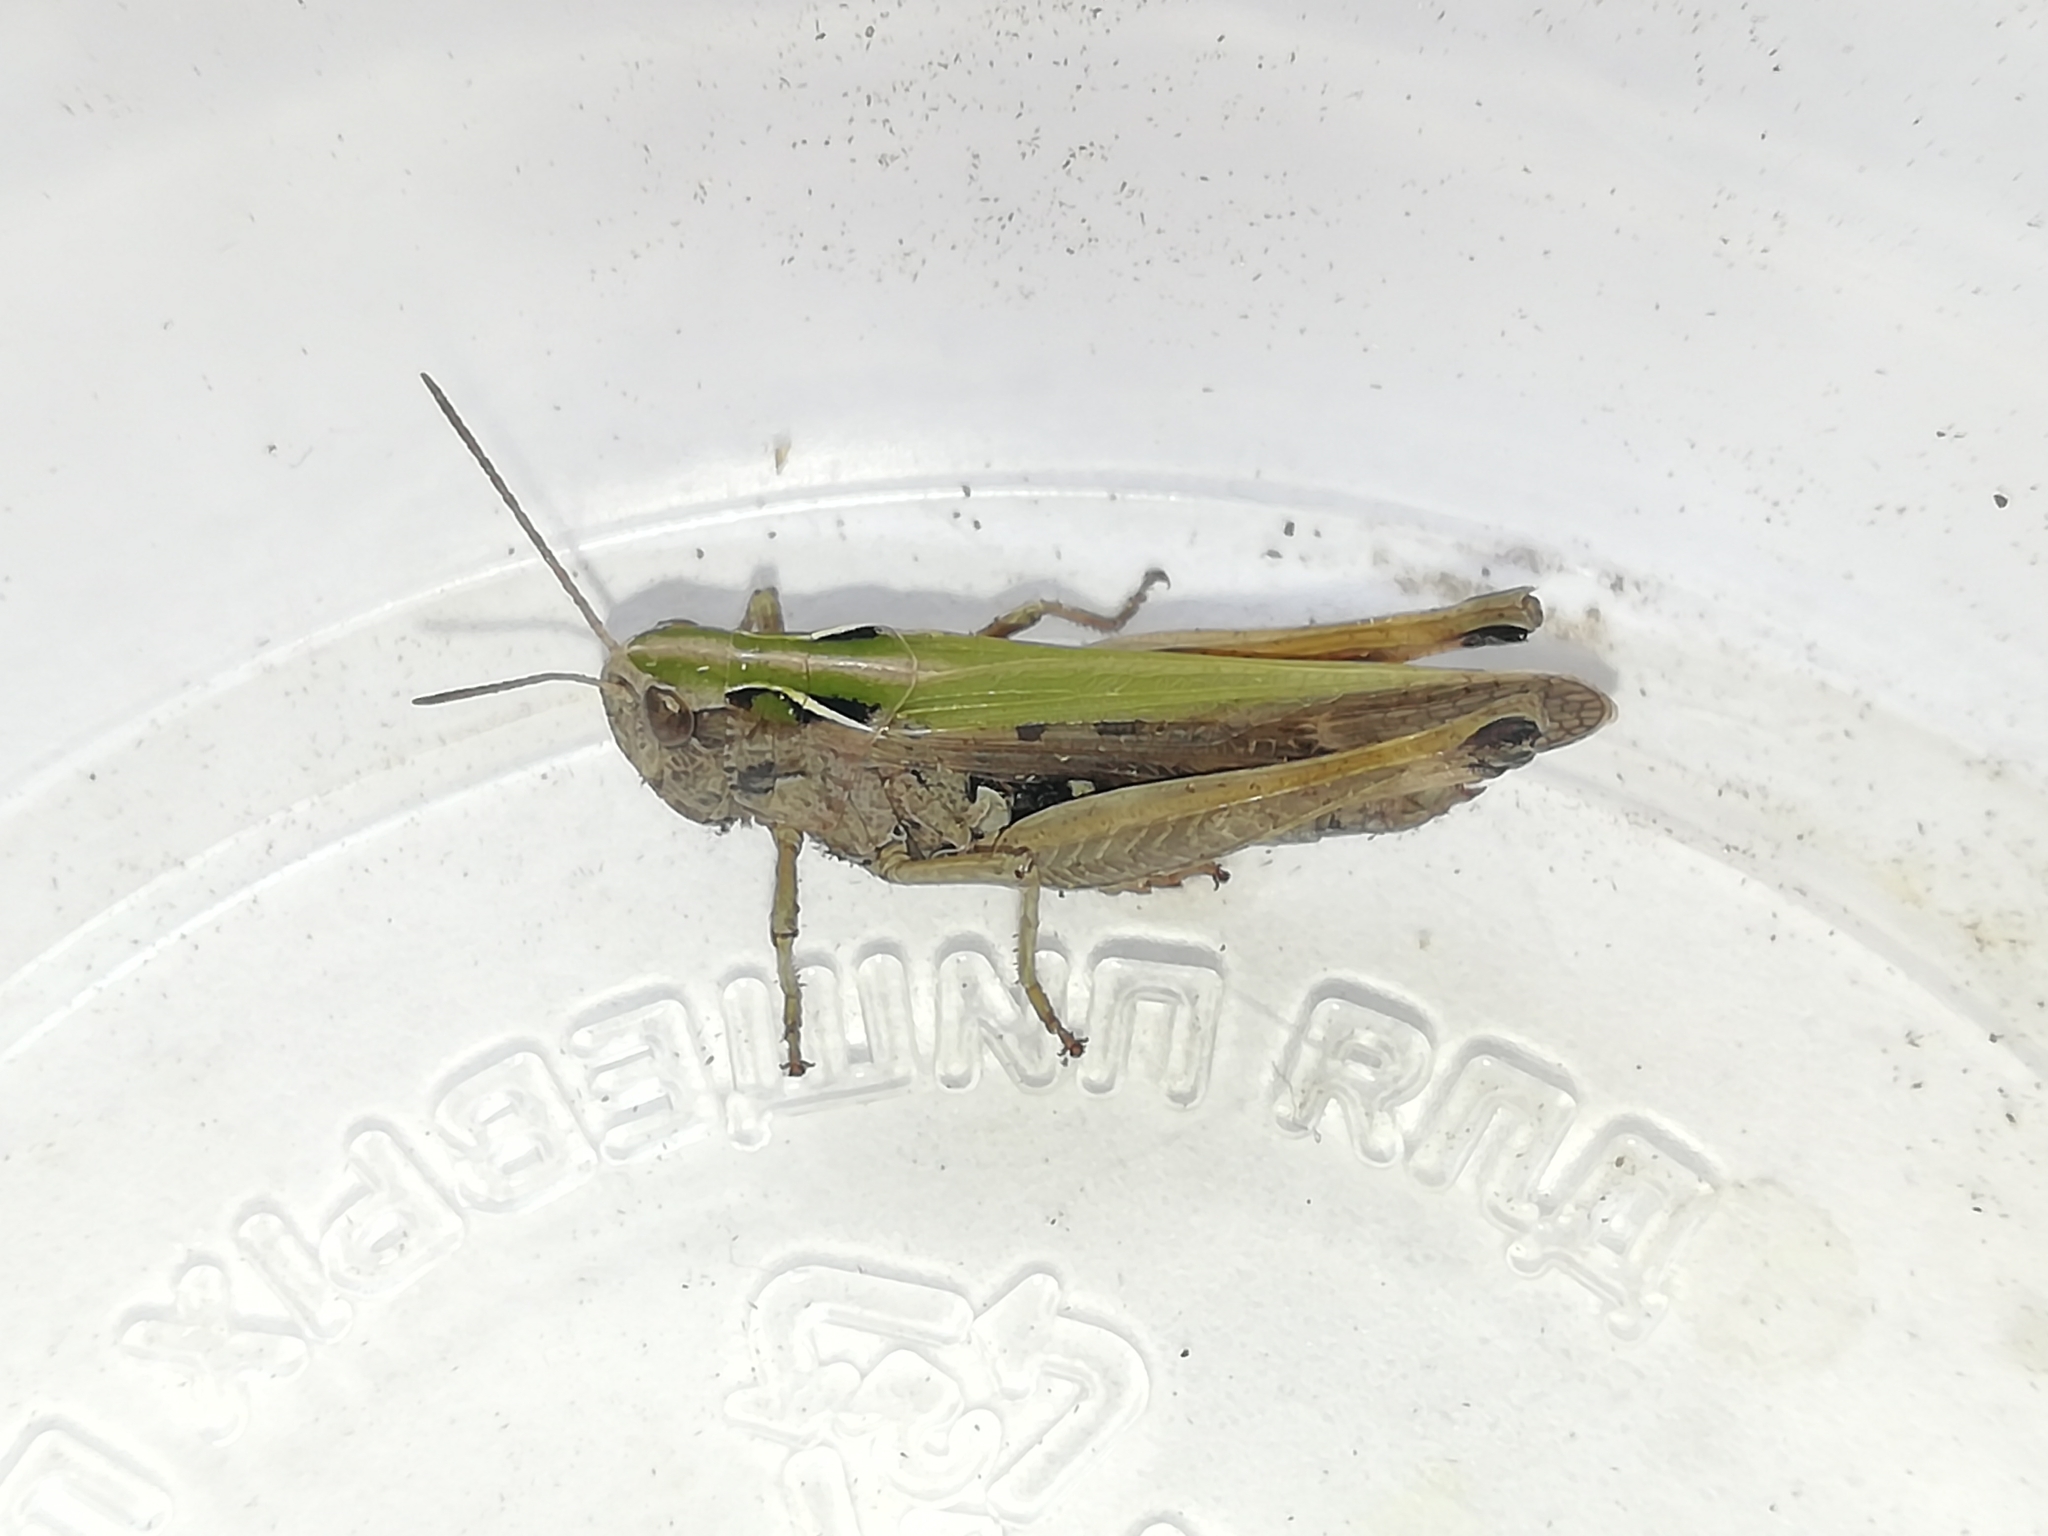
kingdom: Animalia
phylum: Arthropoda
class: Insecta
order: Orthoptera
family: Acrididae
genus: Omocestus
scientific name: Omocestus viridulus
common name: Common green grasshopper
